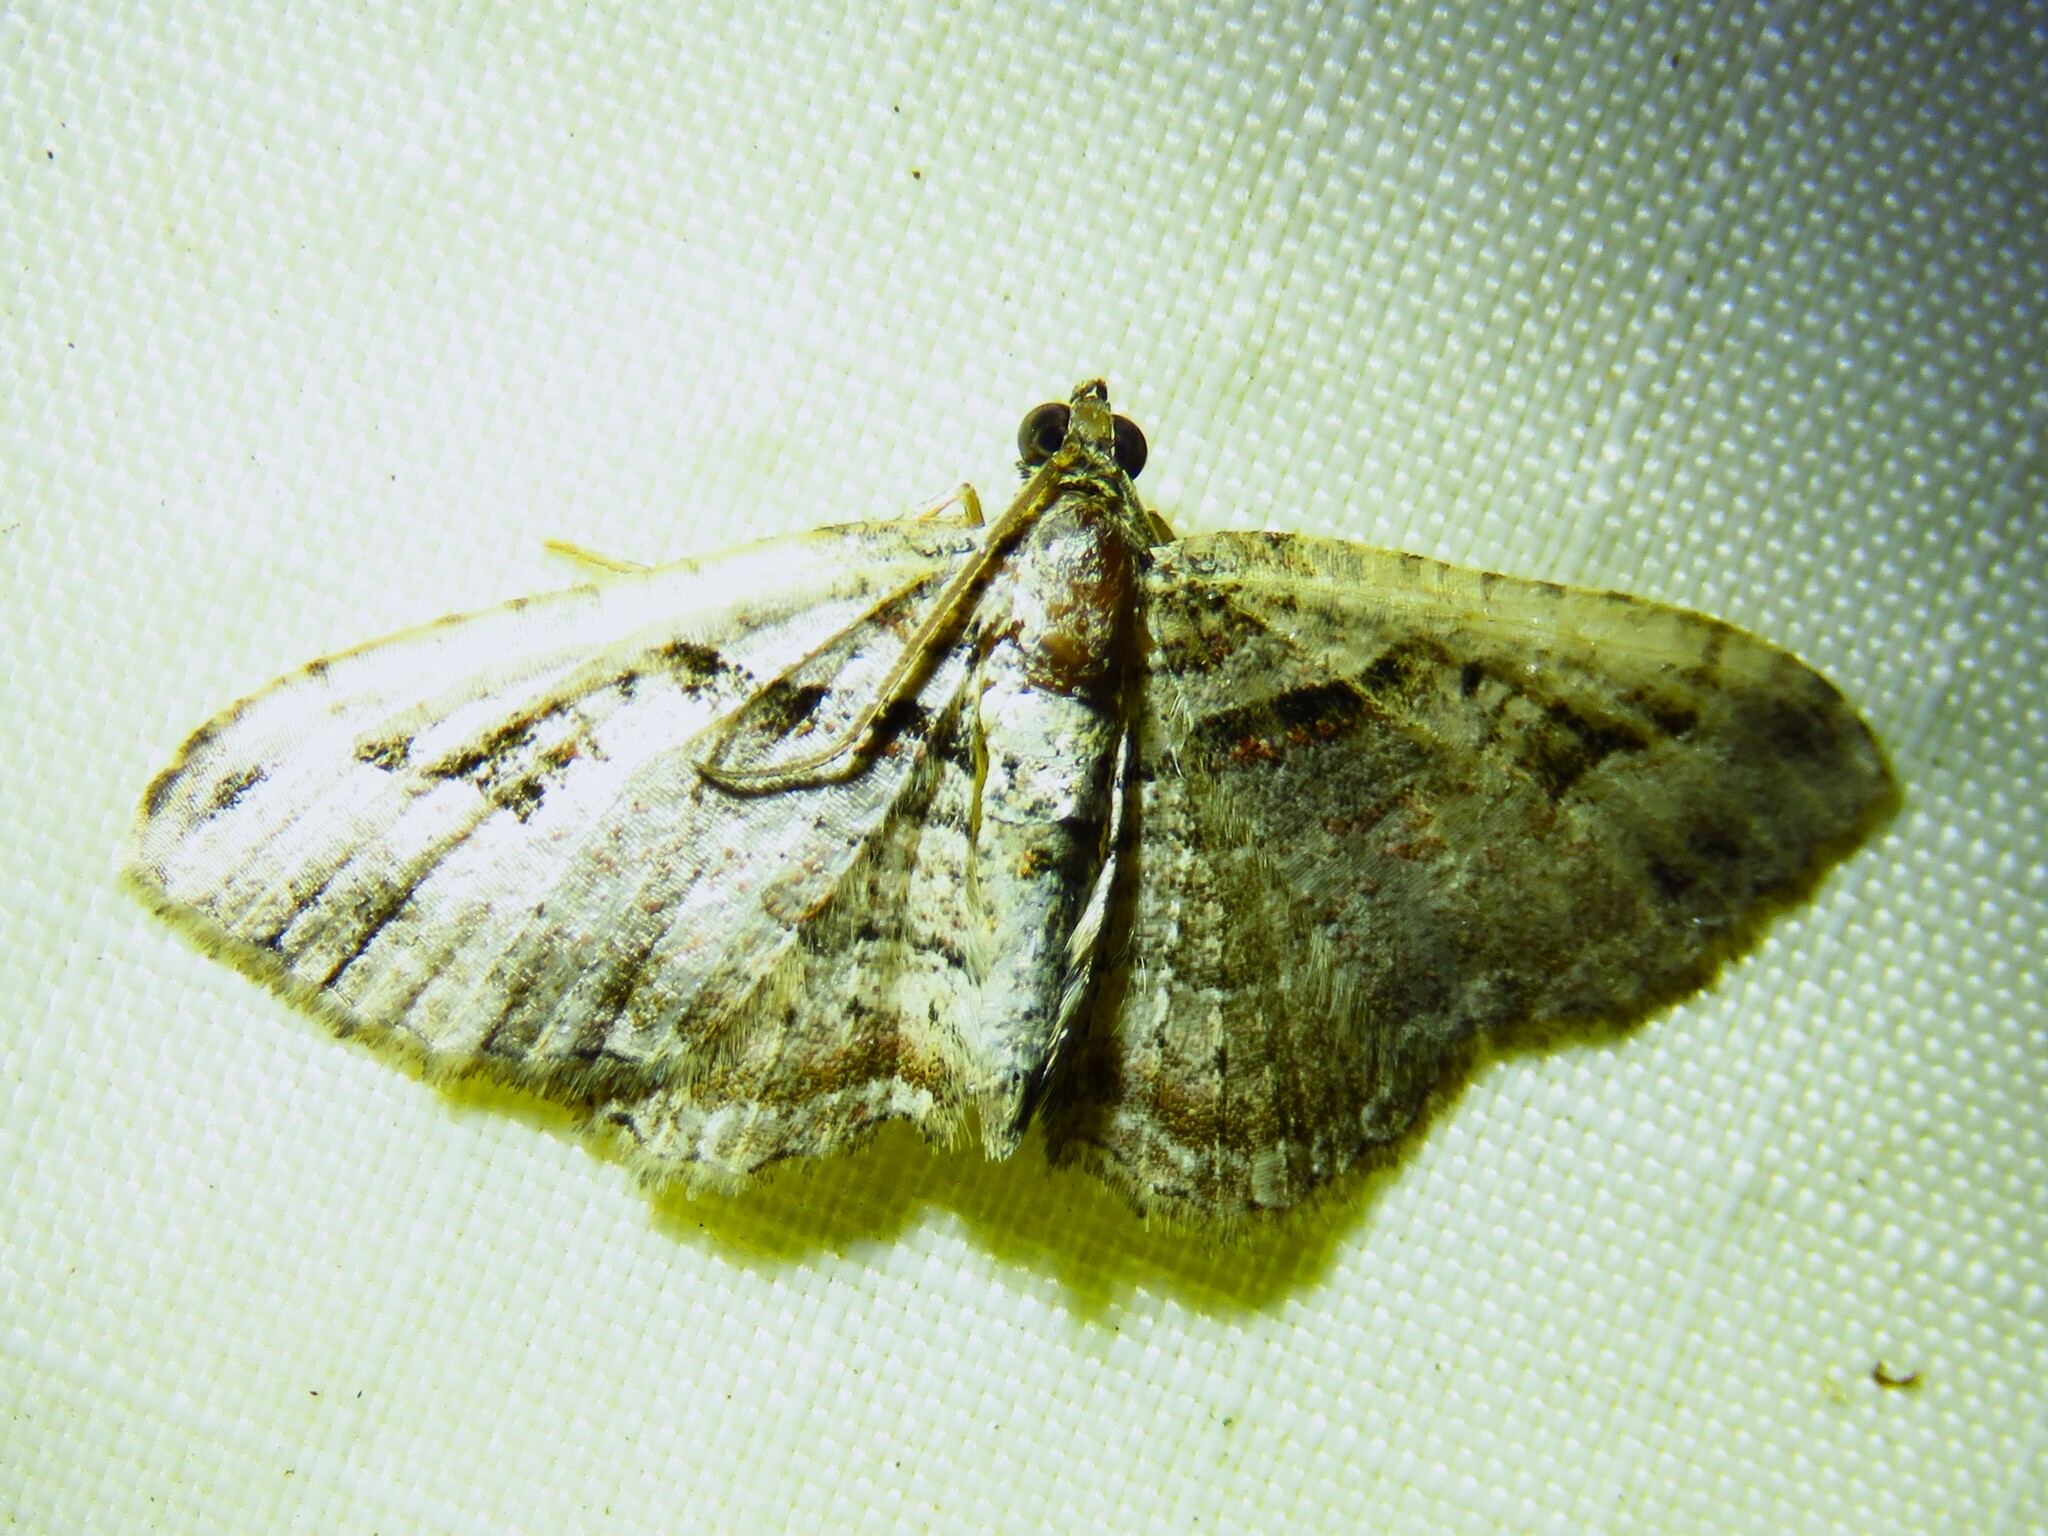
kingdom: Animalia
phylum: Arthropoda
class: Insecta
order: Lepidoptera
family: Geometridae
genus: Costaconvexa
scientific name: Costaconvexa centrostrigaria
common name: Bent-line carpet
